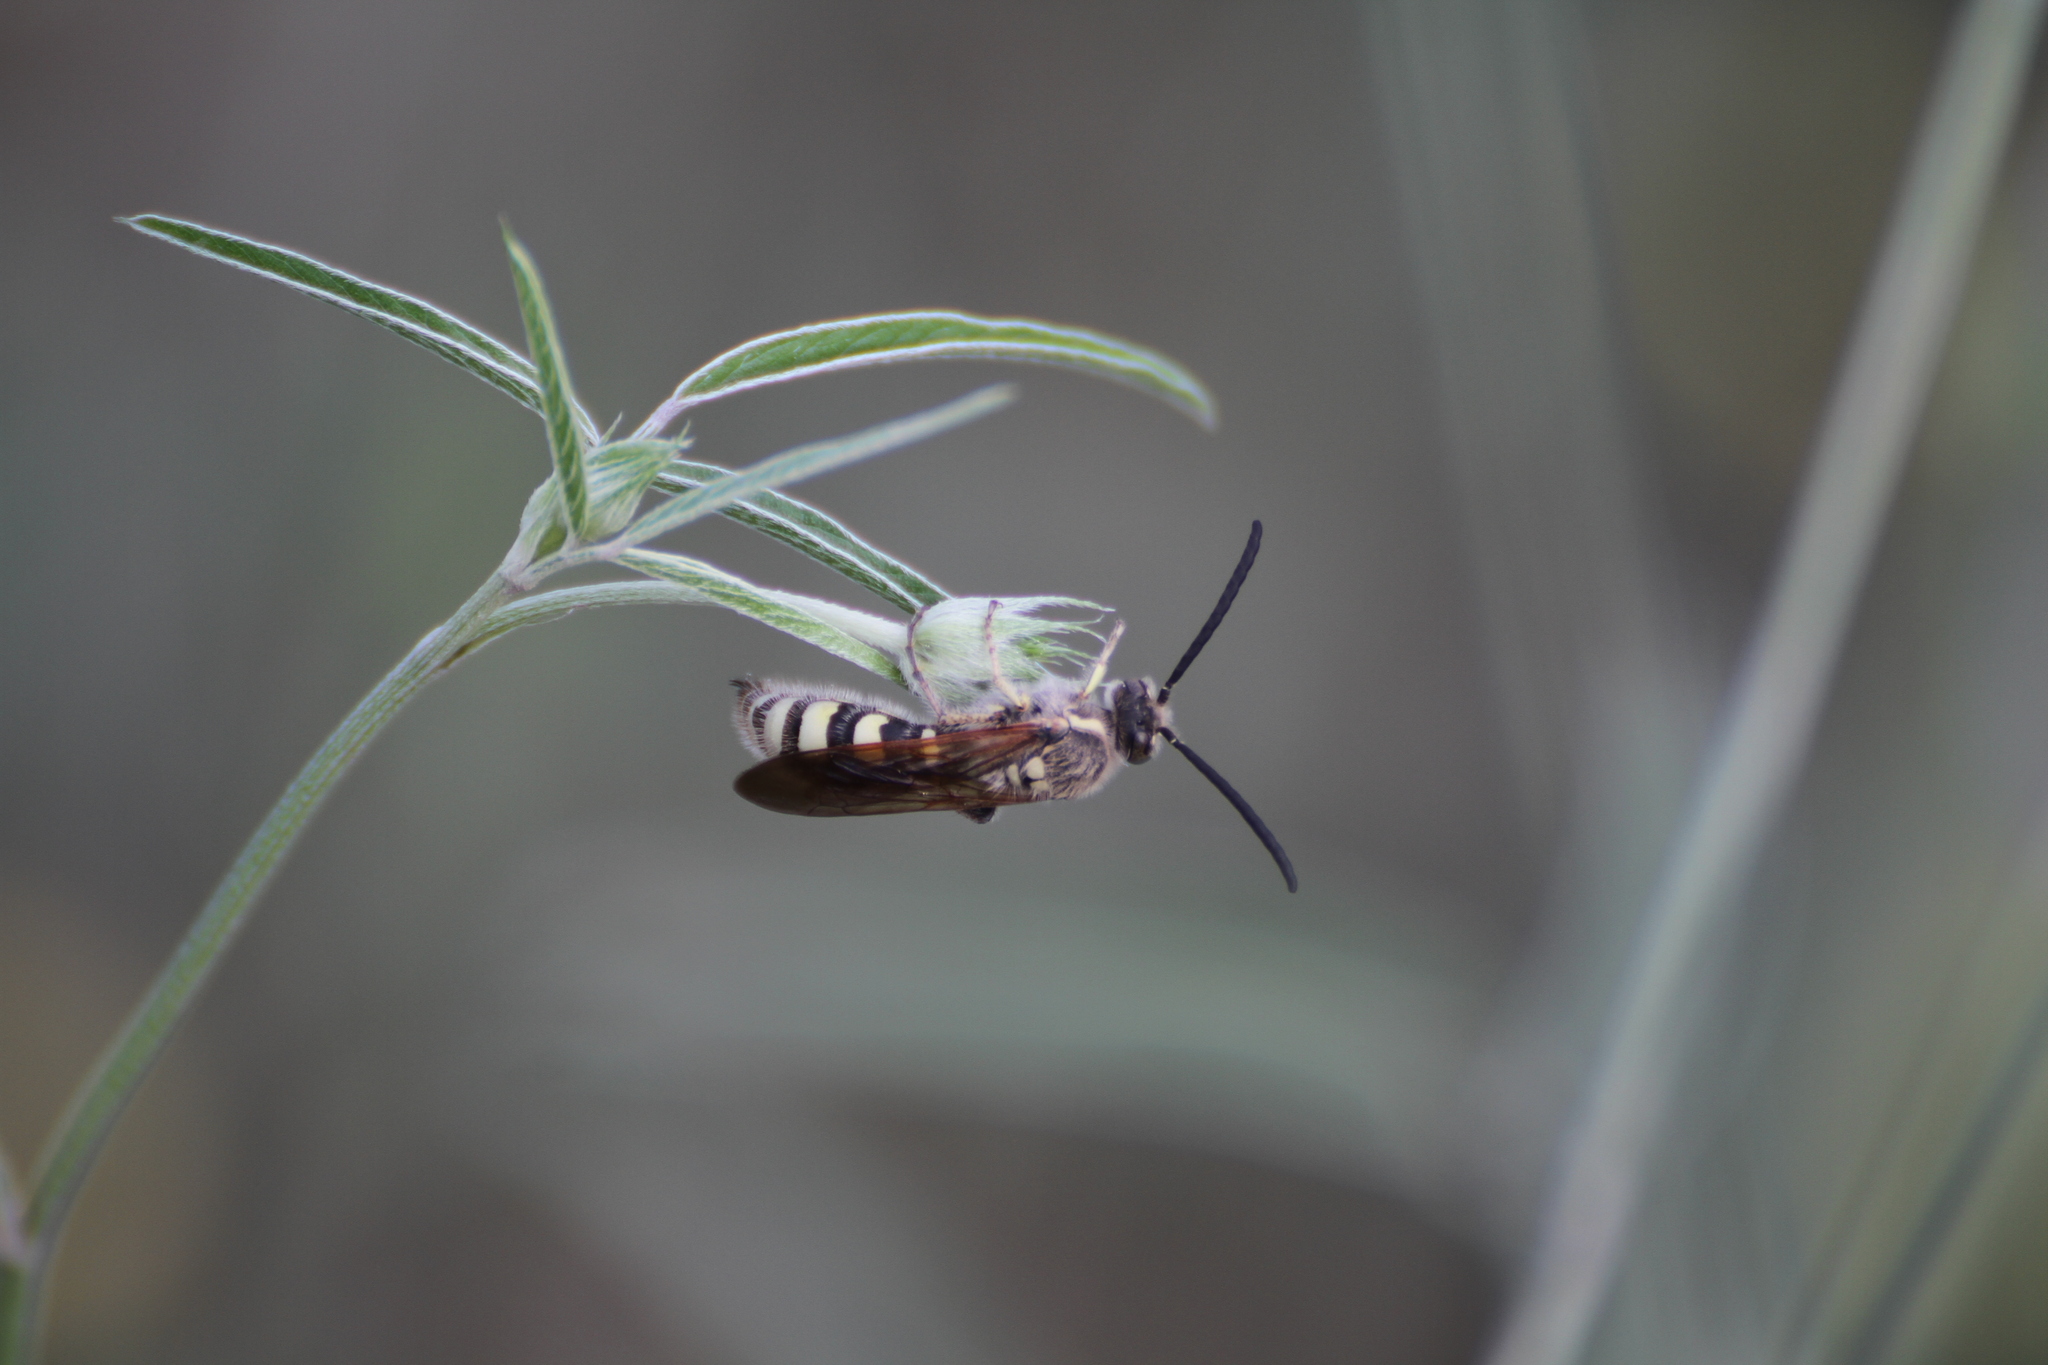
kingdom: Animalia
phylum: Arthropoda
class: Insecta
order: Hymenoptera
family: Vespidae
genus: Vespa
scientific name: Vespa sexmaculata
